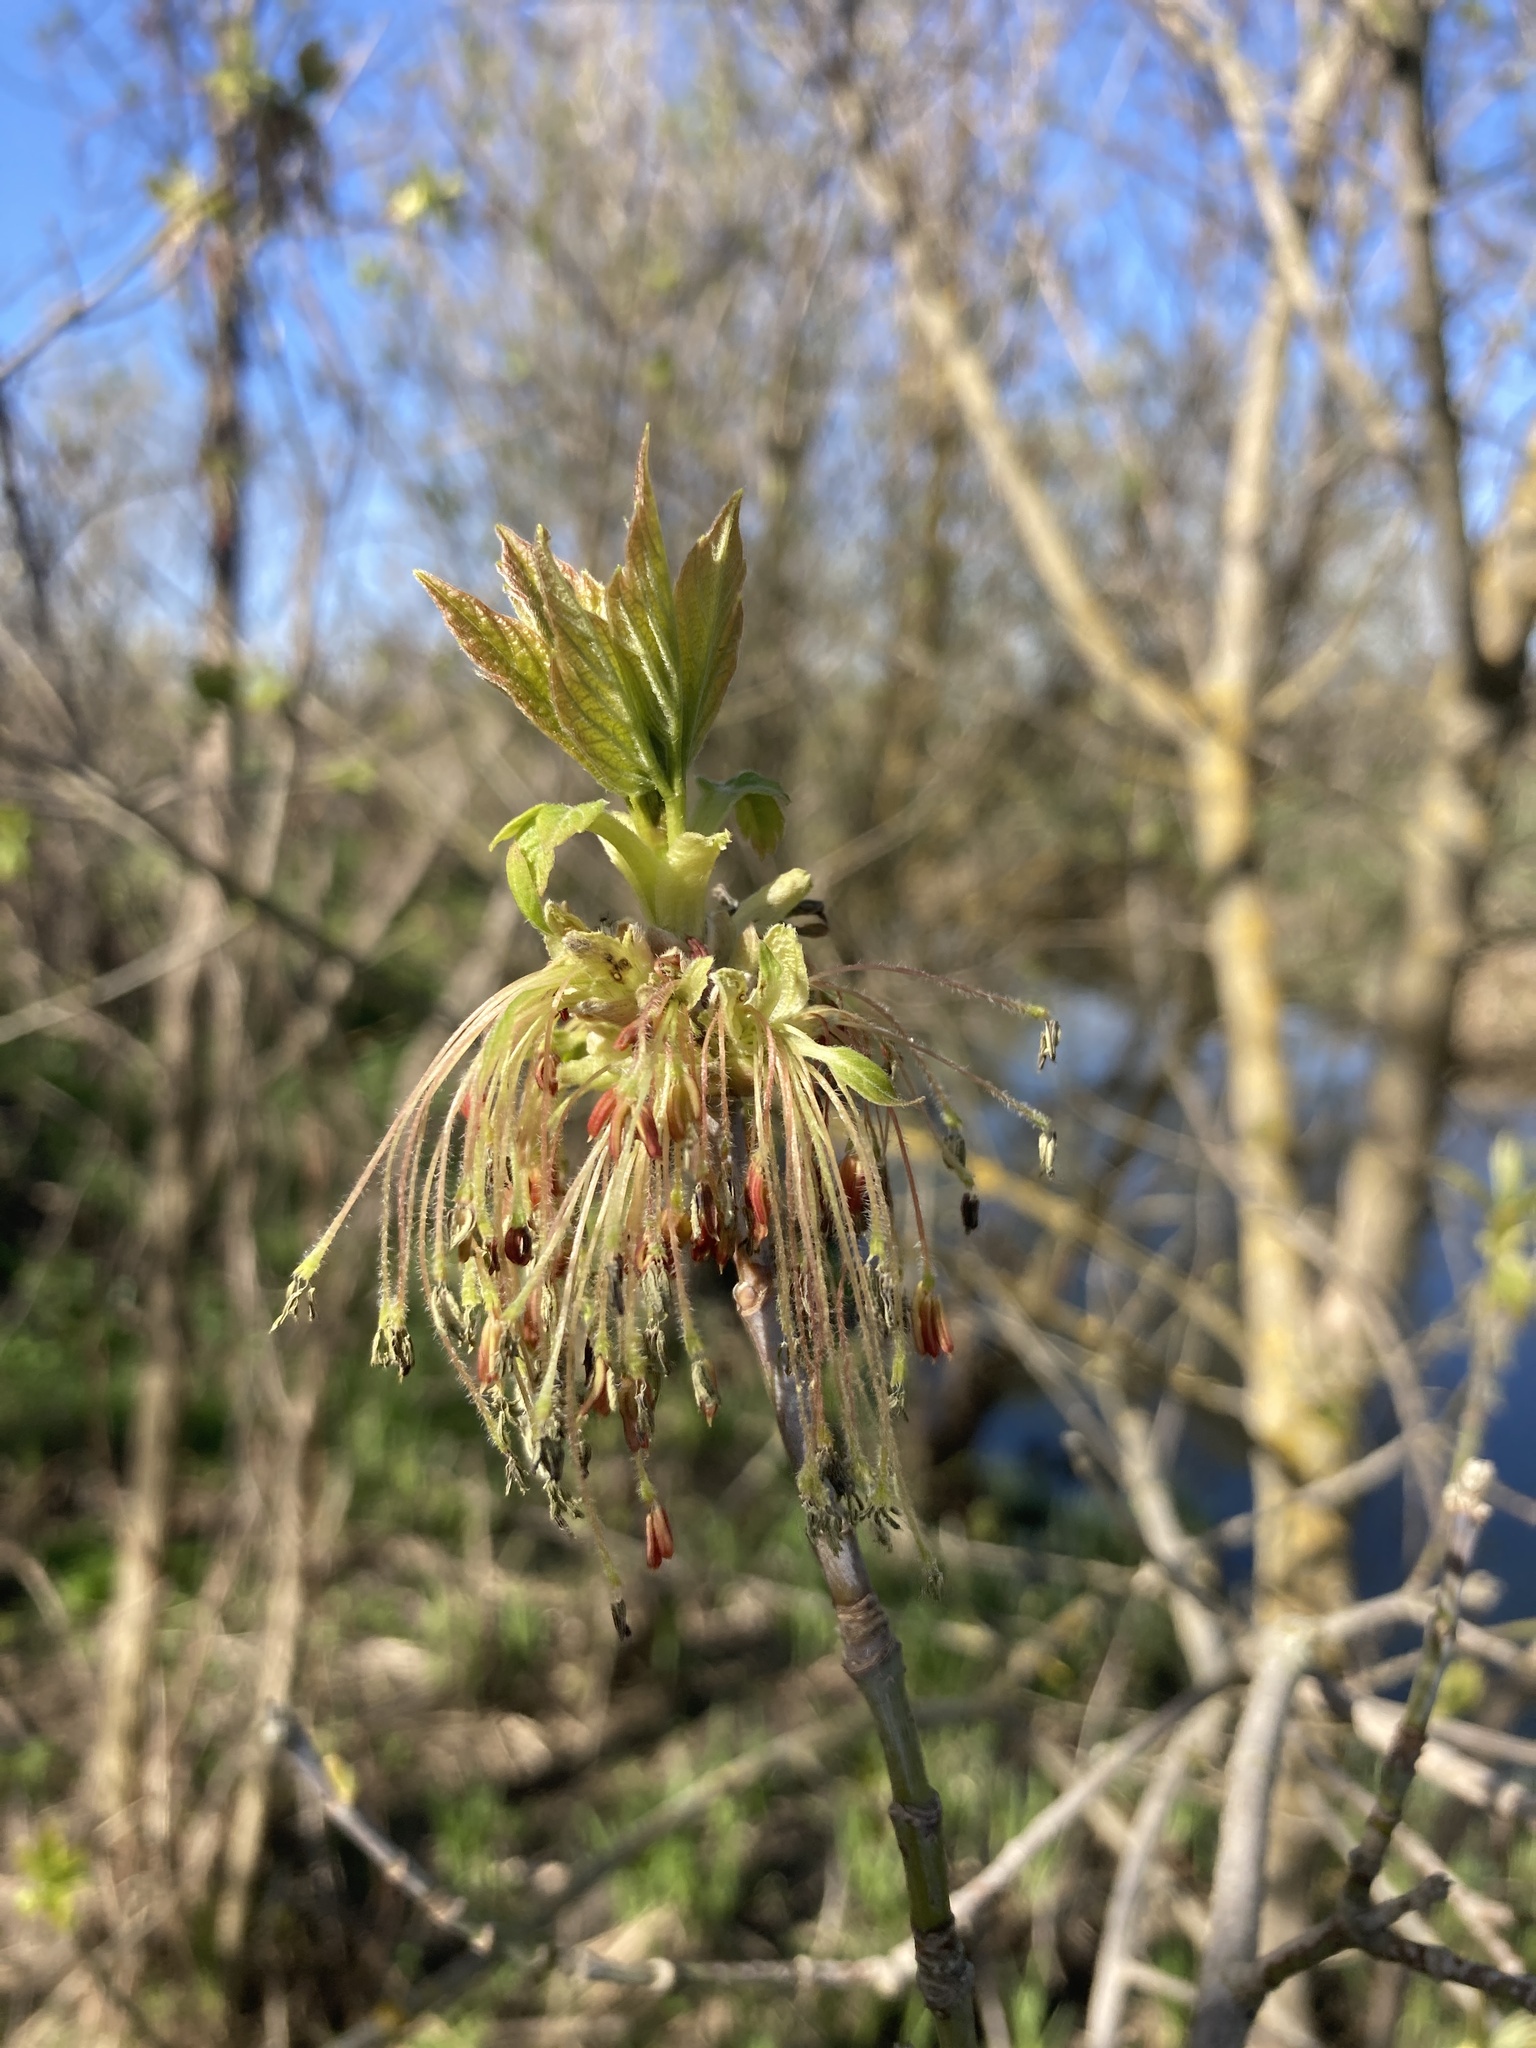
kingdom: Plantae
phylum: Tracheophyta
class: Magnoliopsida
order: Sapindales
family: Sapindaceae
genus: Acer
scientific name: Acer negundo
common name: Ashleaf maple
